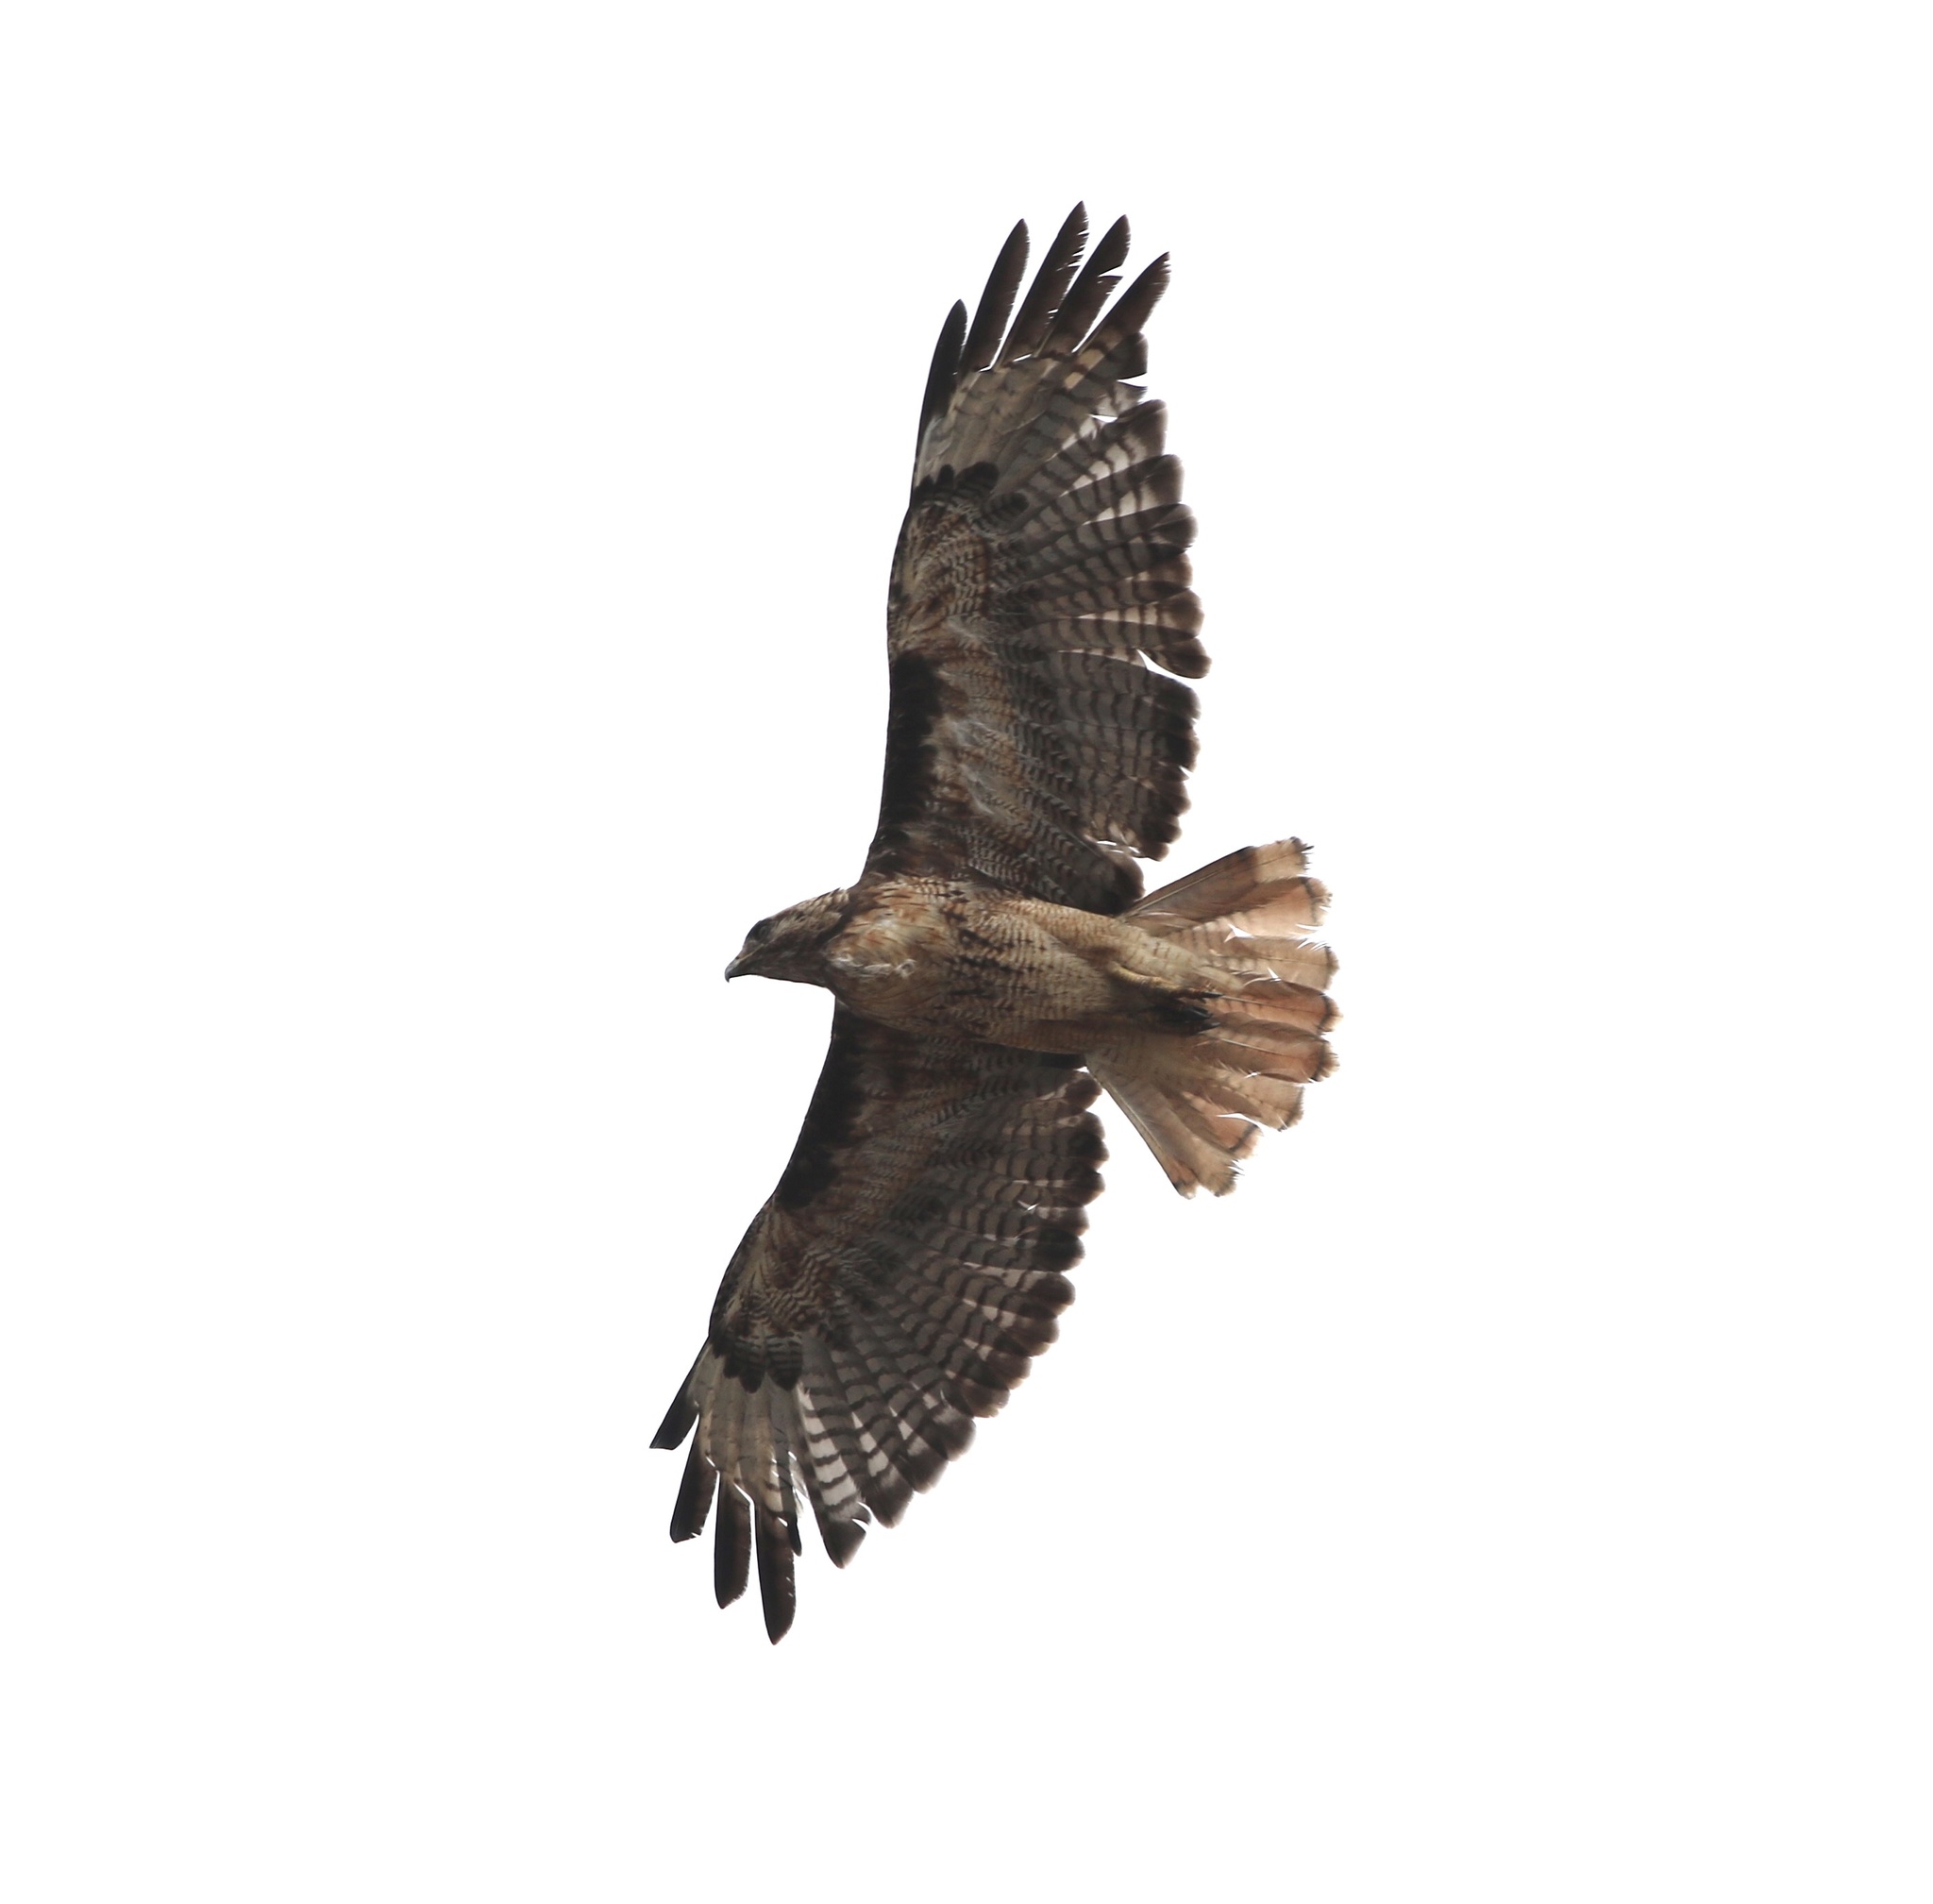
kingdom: Animalia
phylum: Chordata
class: Aves
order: Accipitriformes
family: Accipitridae
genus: Buteo
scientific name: Buteo jamaicensis
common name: Red-tailed hawk
